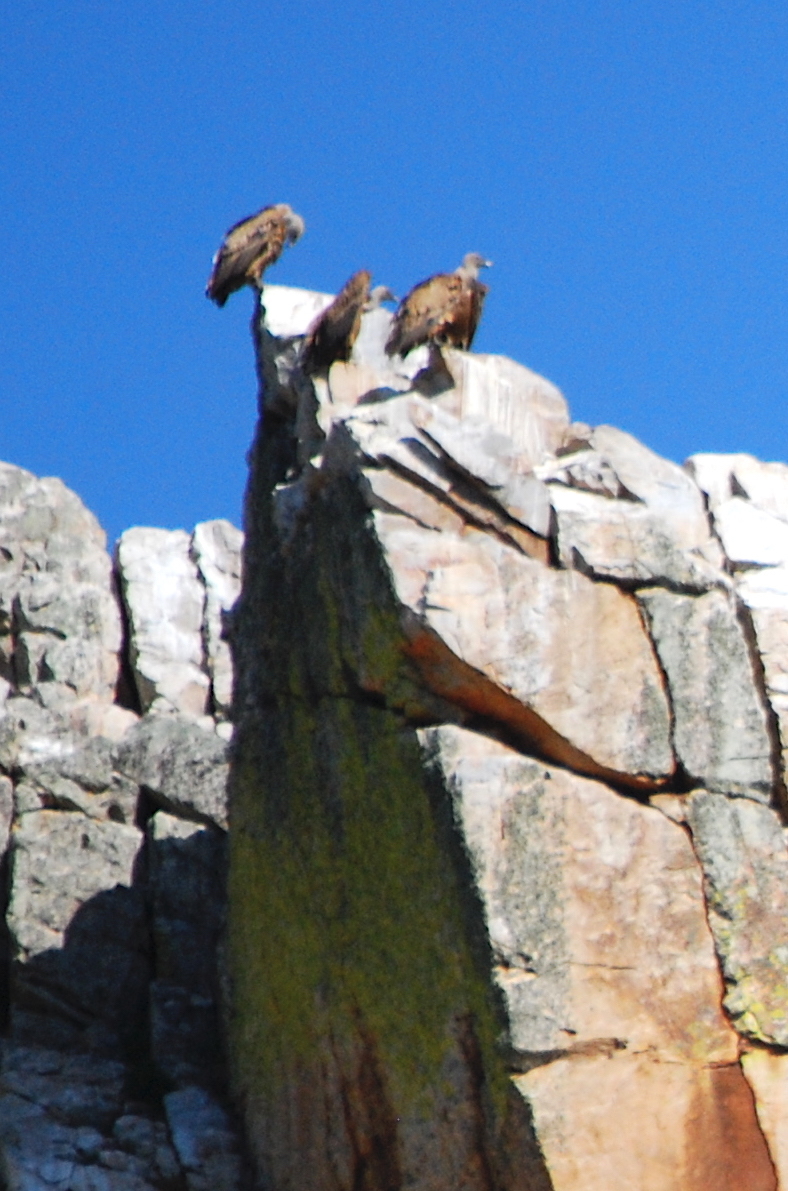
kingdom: Animalia
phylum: Chordata
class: Aves
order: Accipitriformes
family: Accipitridae
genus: Gyps
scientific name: Gyps fulvus
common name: Griffon vulture
